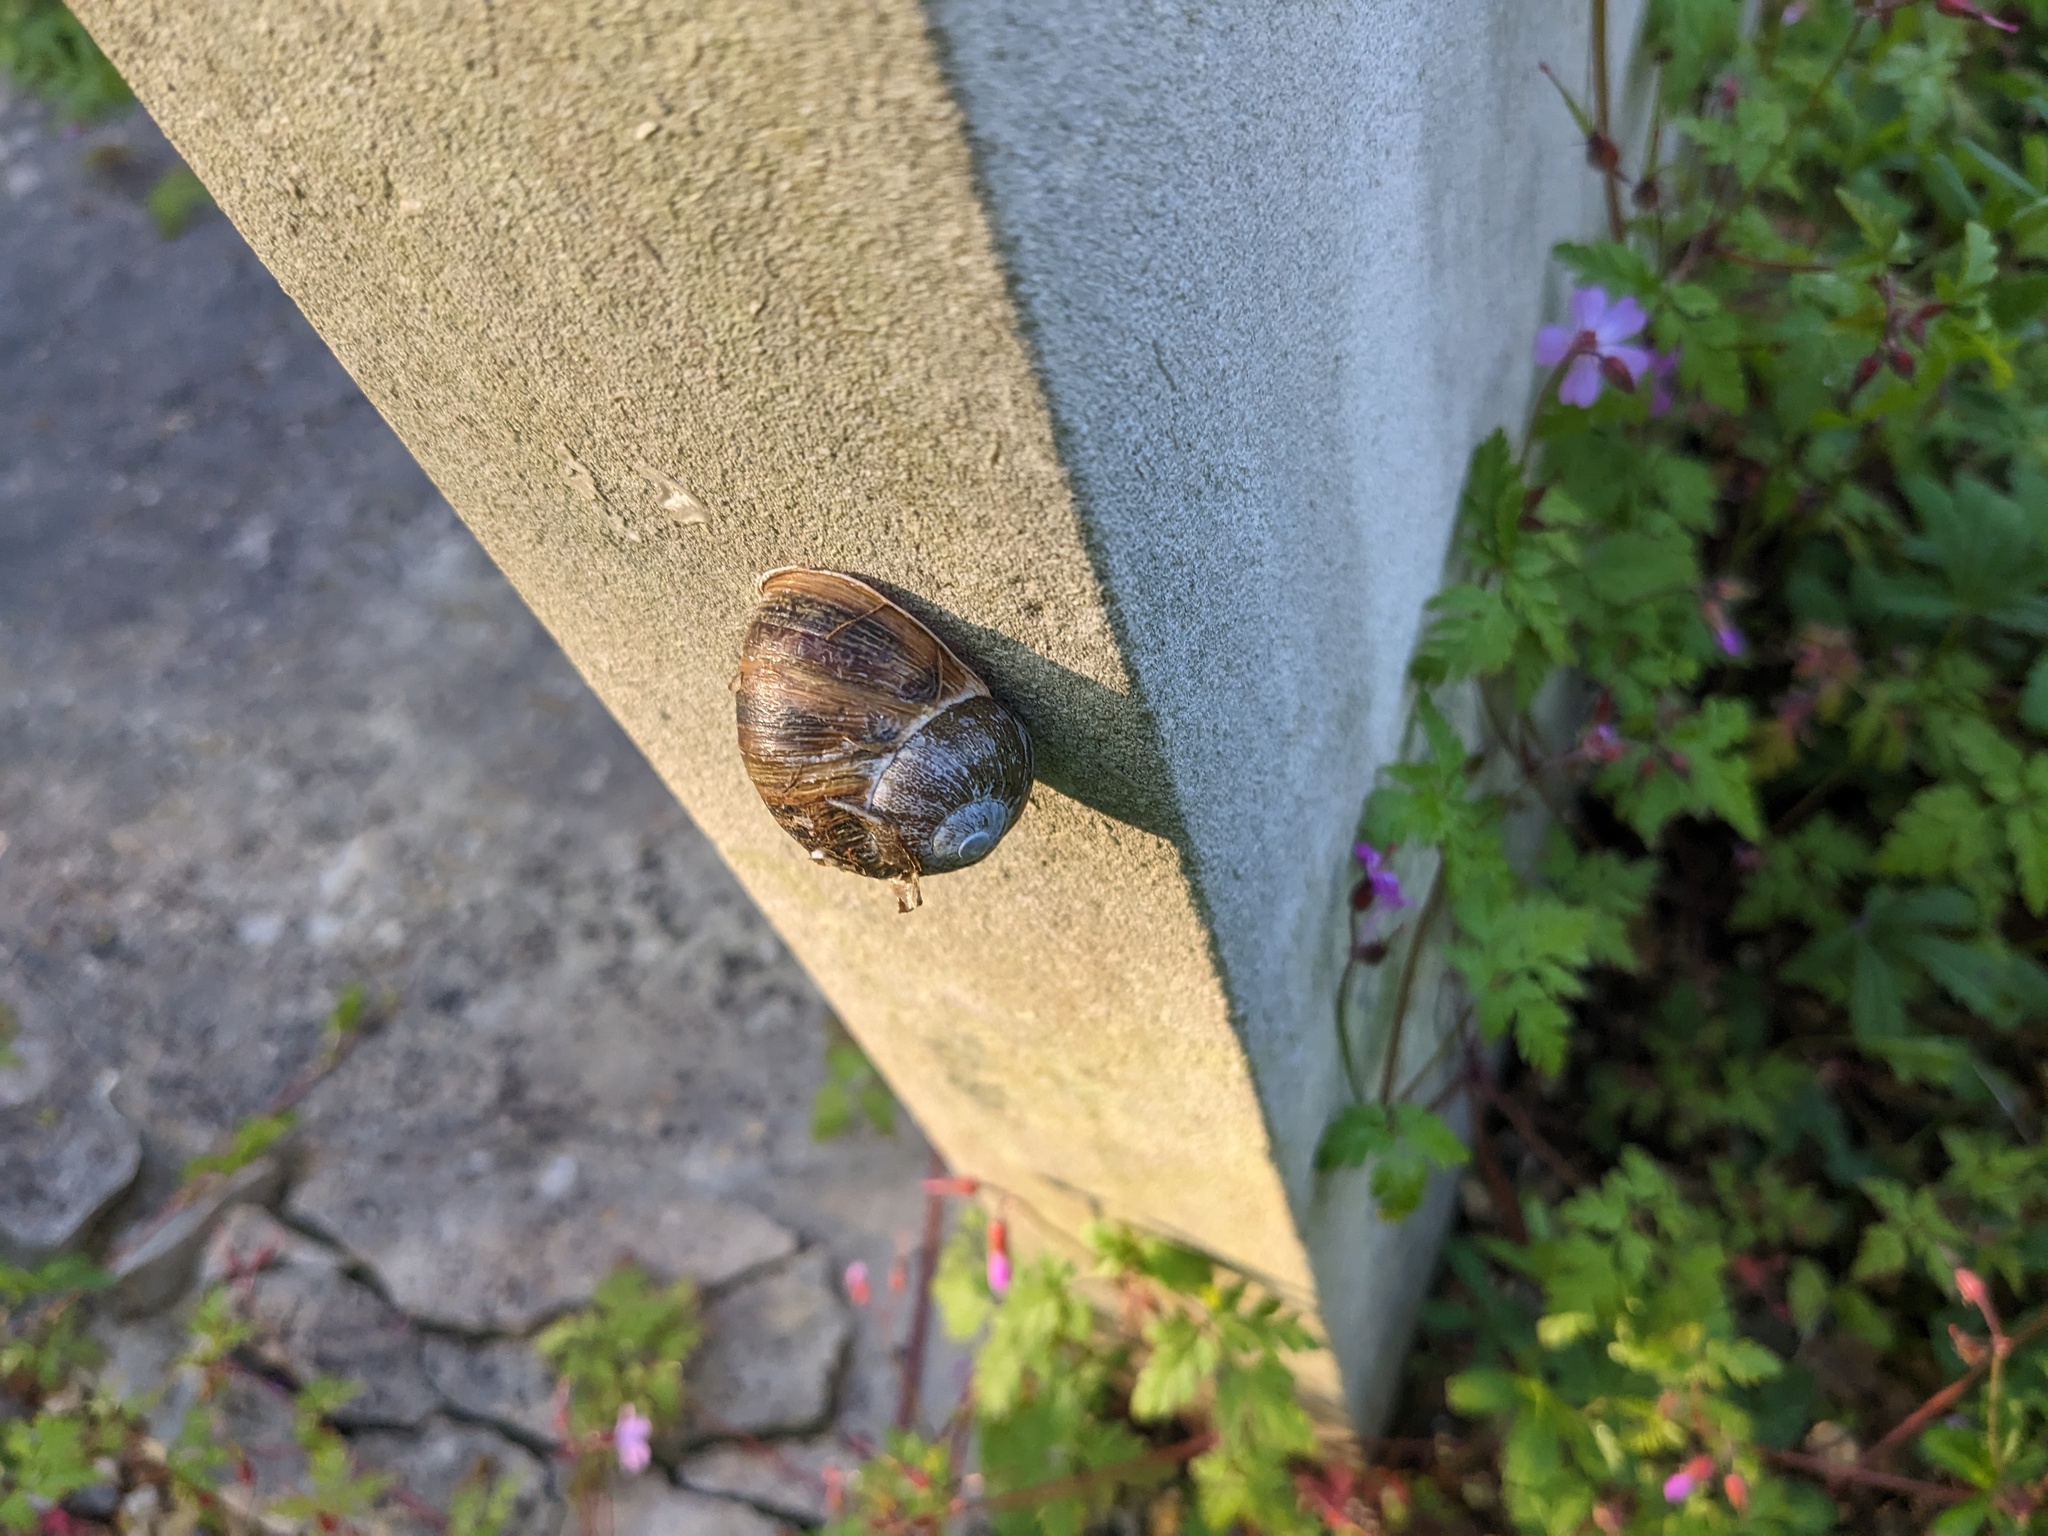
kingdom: Animalia
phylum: Mollusca
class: Gastropoda
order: Stylommatophora
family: Helicidae
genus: Cornu
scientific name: Cornu aspersum
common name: Brown garden snail
